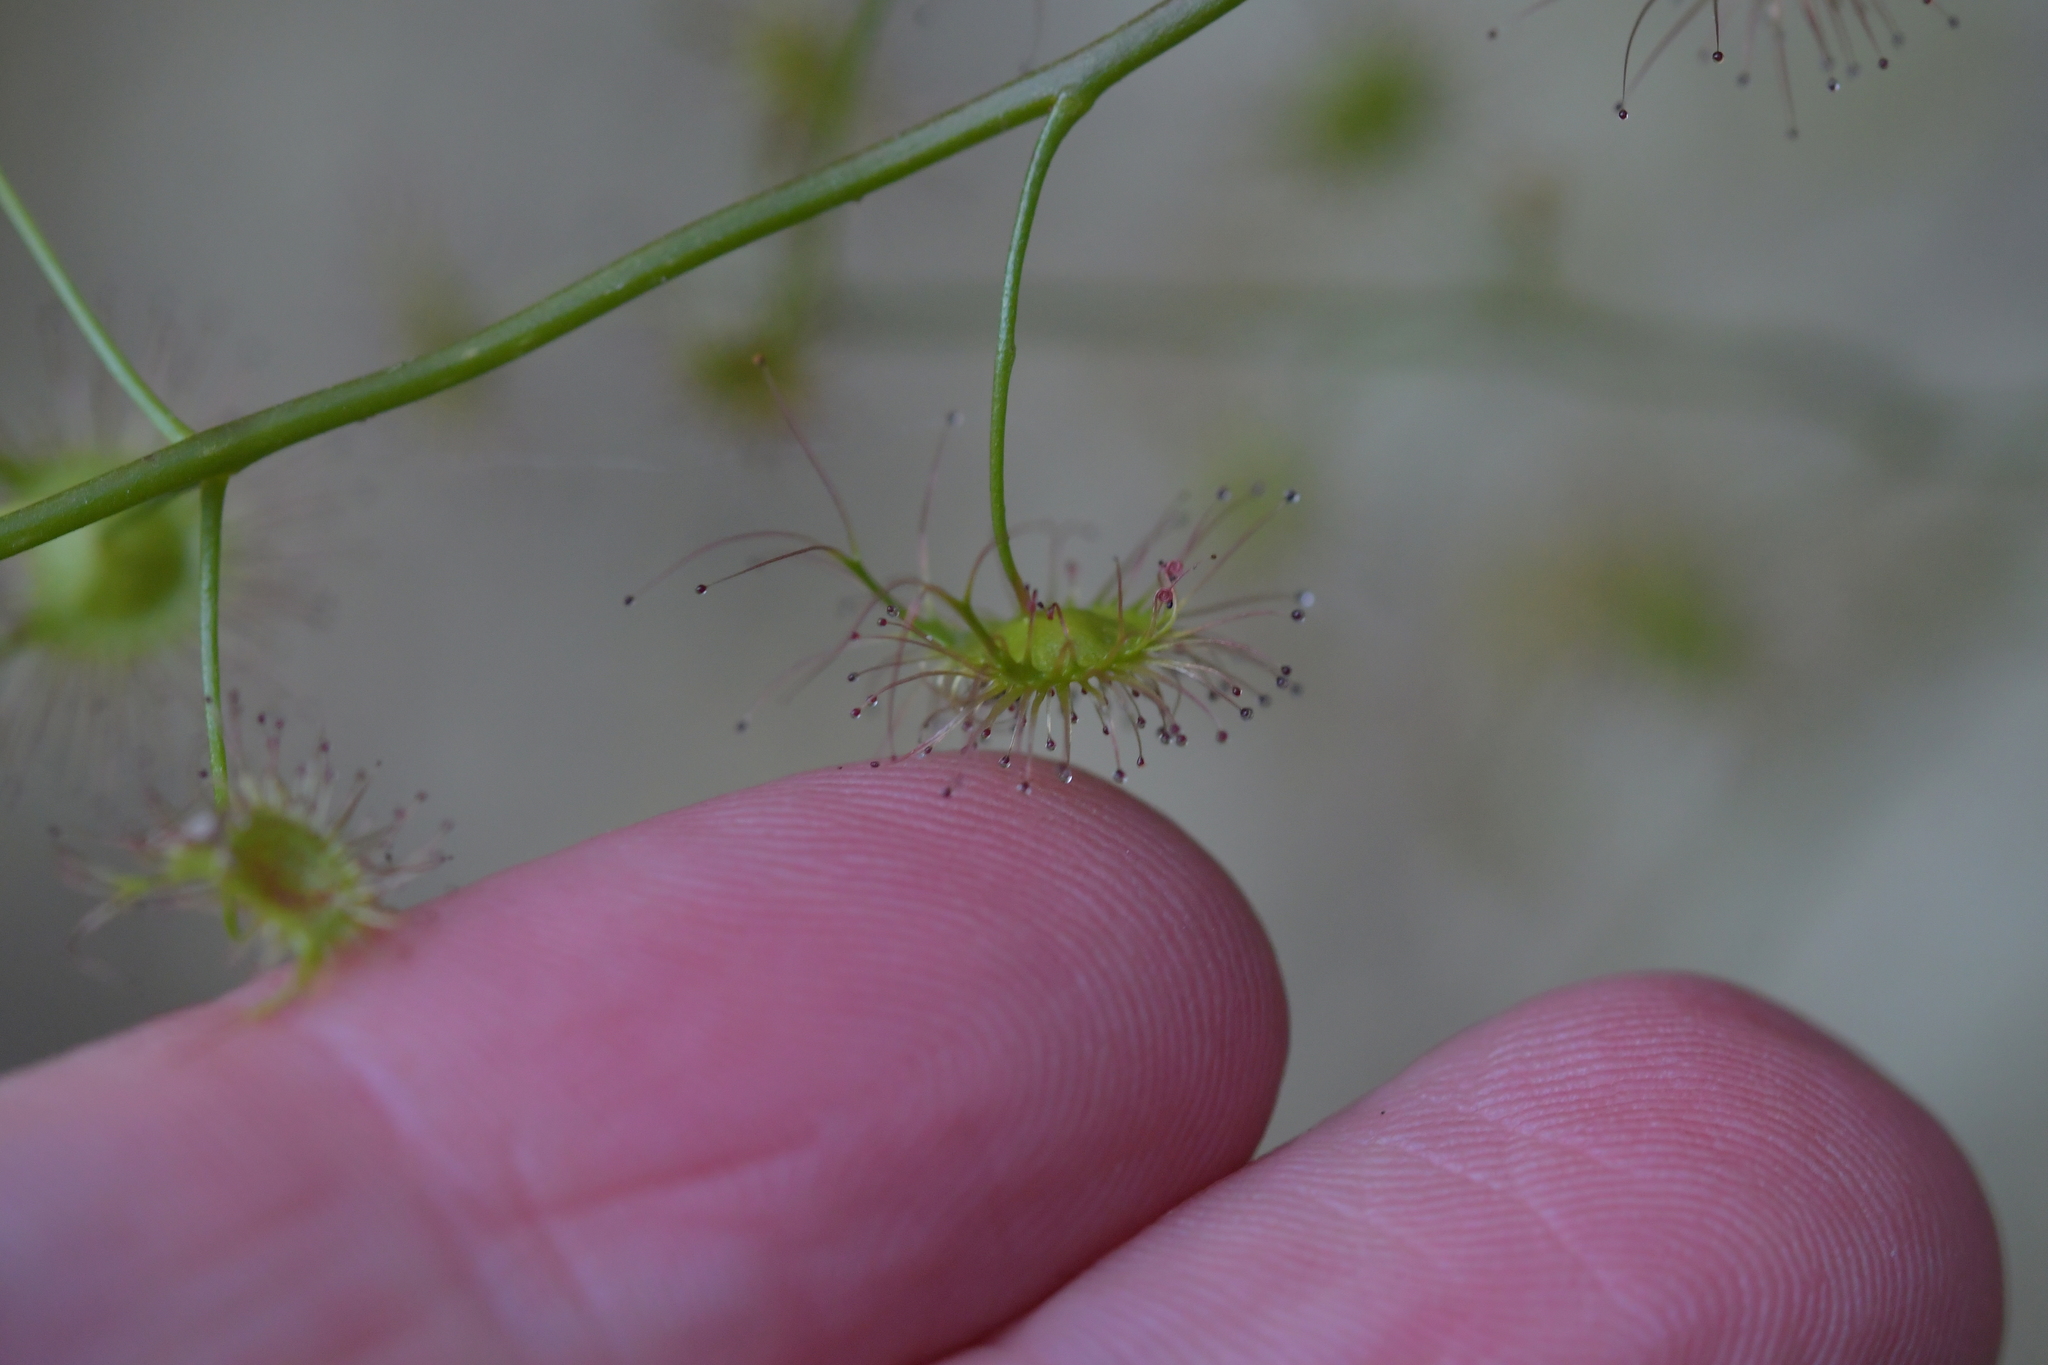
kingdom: Plantae
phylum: Tracheophyta
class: Magnoliopsida
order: Caryophyllales
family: Droseraceae
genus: Drosera
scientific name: Drosera peltata
